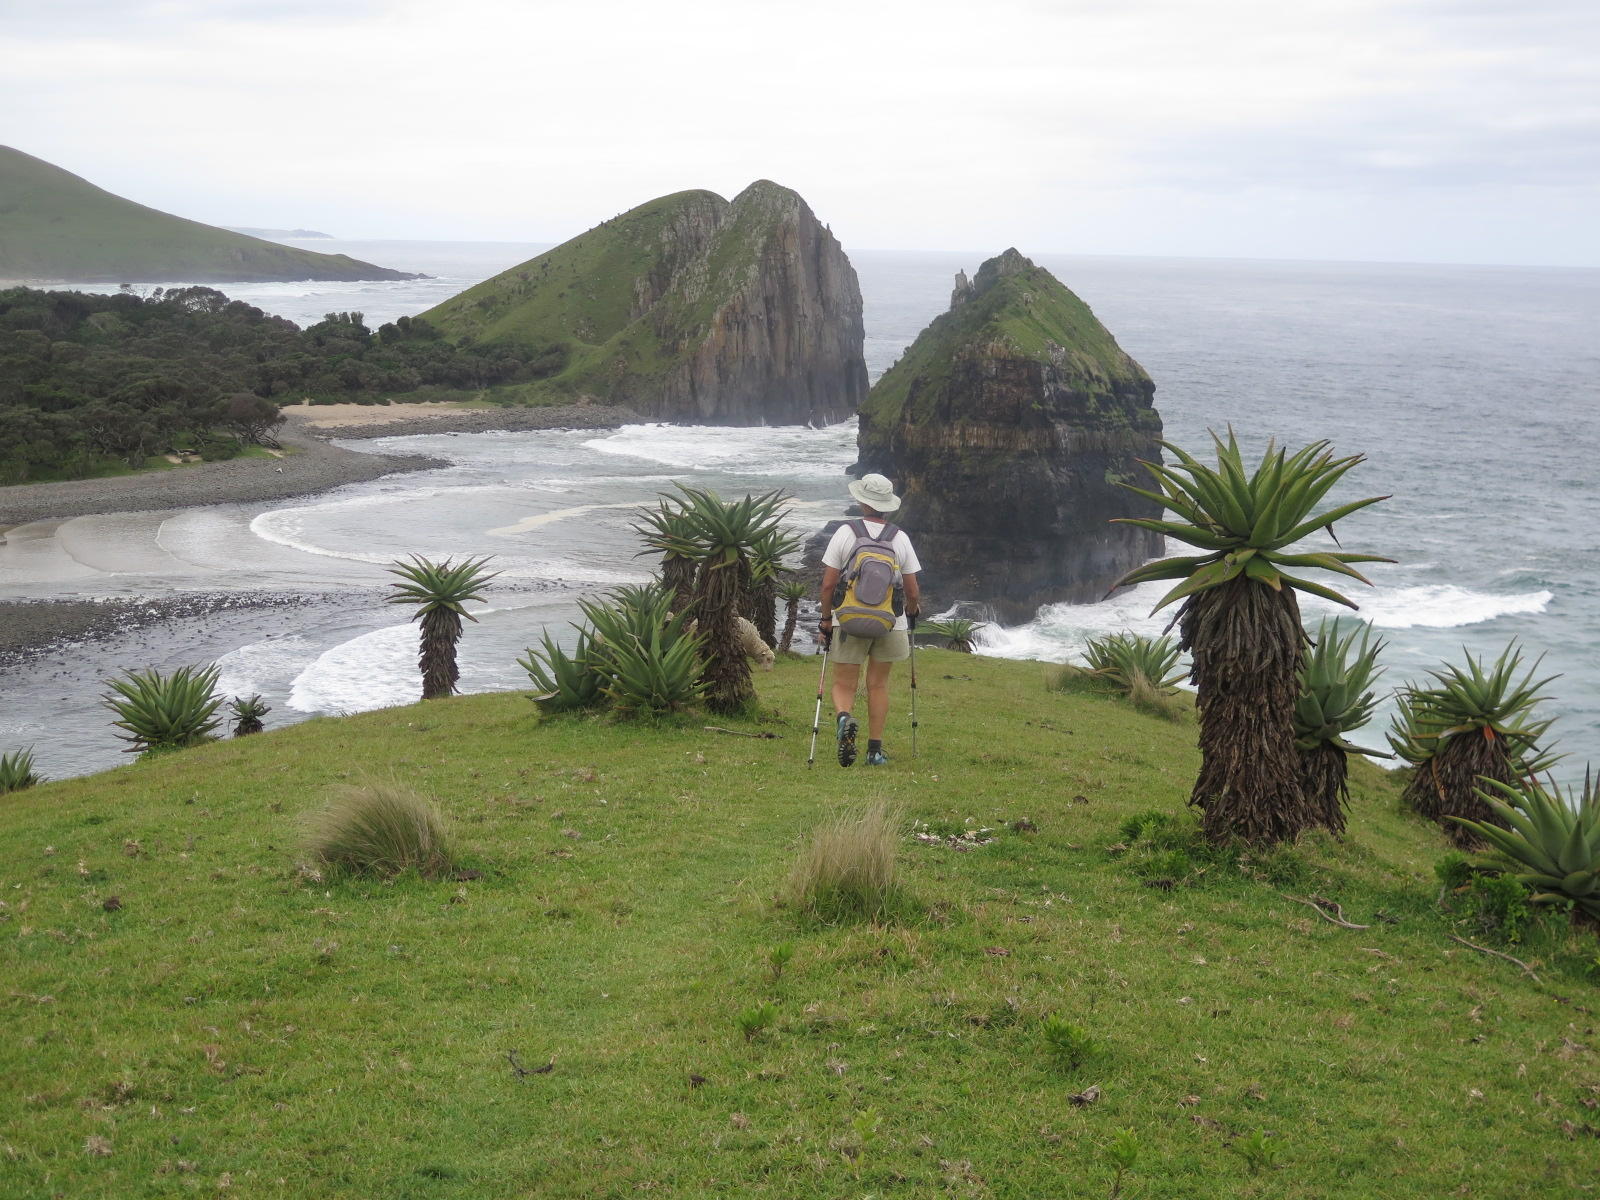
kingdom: Plantae
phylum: Tracheophyta
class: Liliopsida
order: Asparagales
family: Asphodelaceae
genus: Aloe
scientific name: Aloe ferox
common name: Bitter aloe
